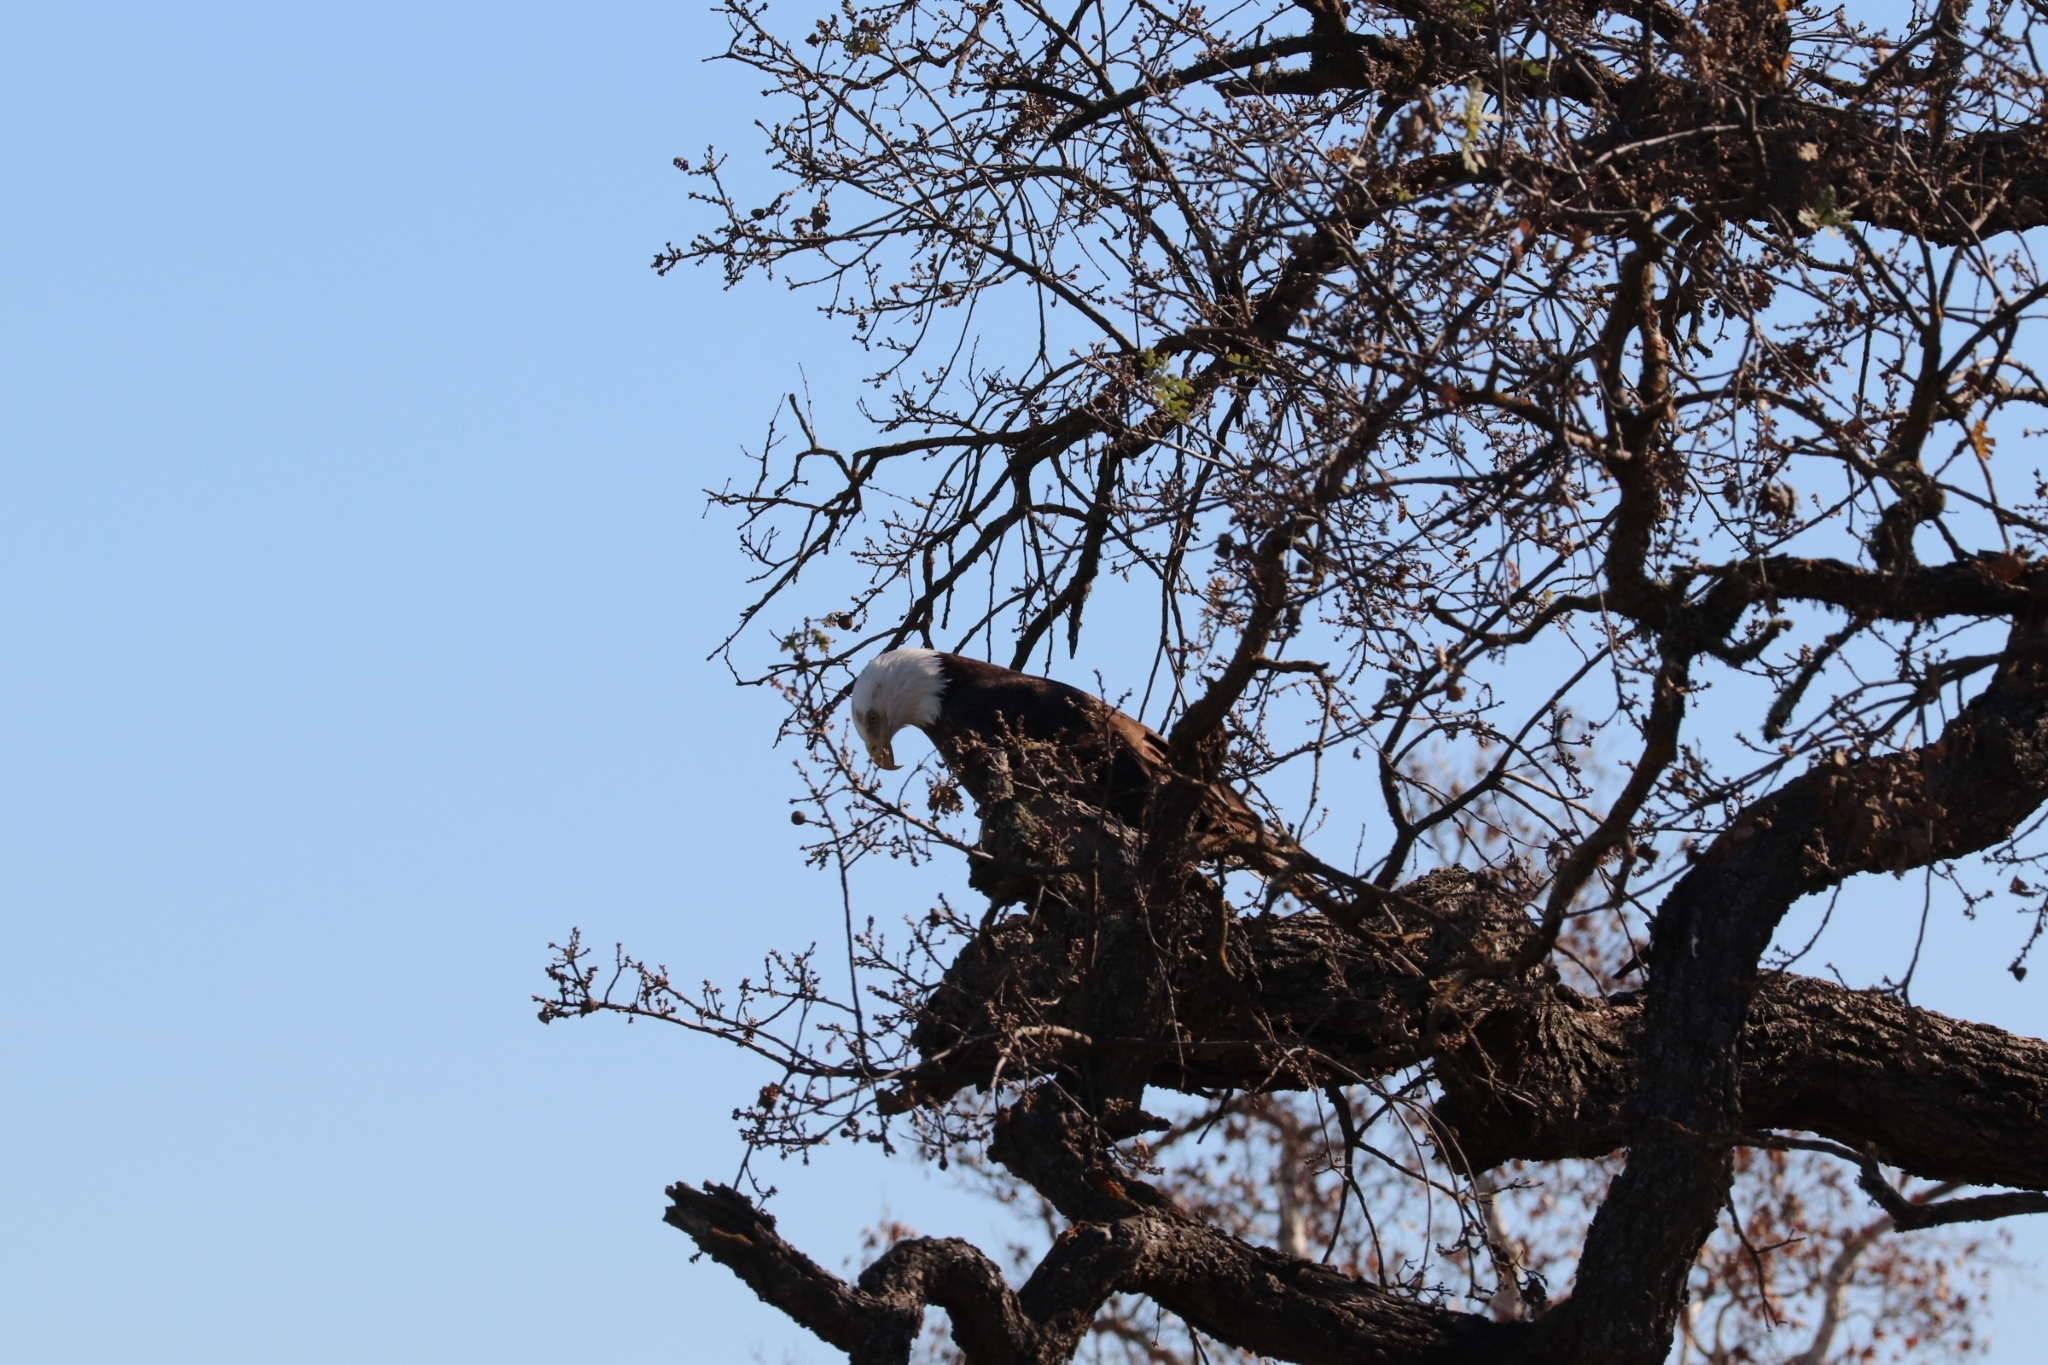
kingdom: Animalia
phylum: Chordata
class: Aves
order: Accipitriformes
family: Accipitridae
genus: Haliaeetus
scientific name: Haliaeetus leucocephalus
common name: Bald eagle
